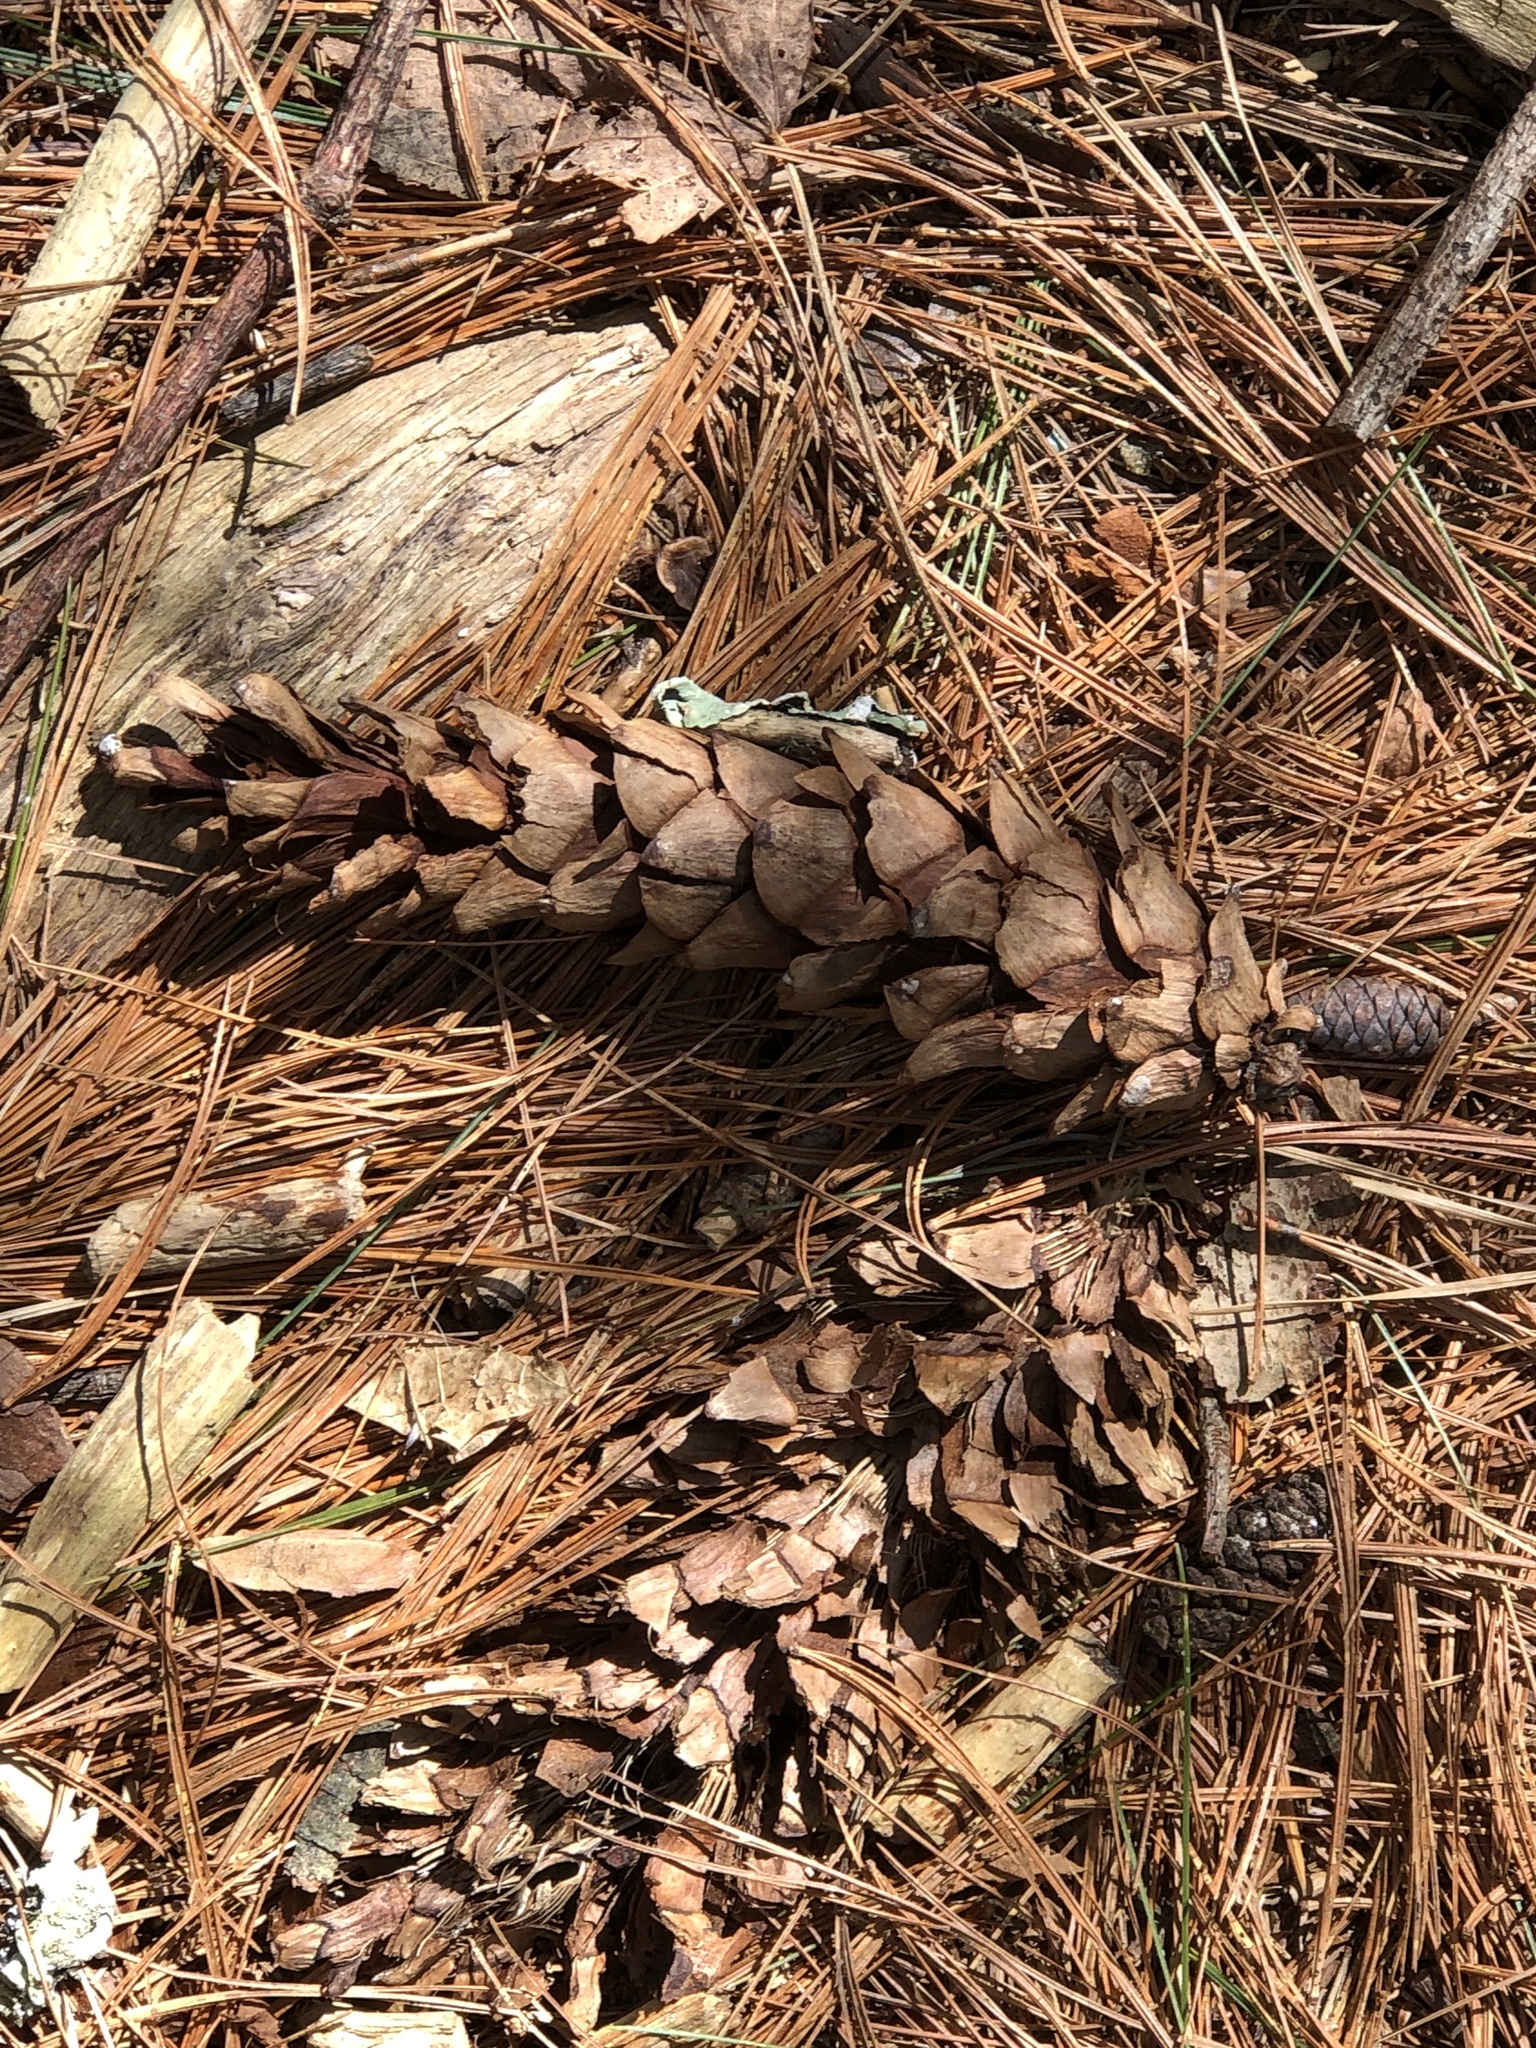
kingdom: Plantae
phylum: Tracheophyta
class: Pinopsida
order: Pinales
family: Pinaceae
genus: Pinus
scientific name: Pinus strobus
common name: Weymouth pine
